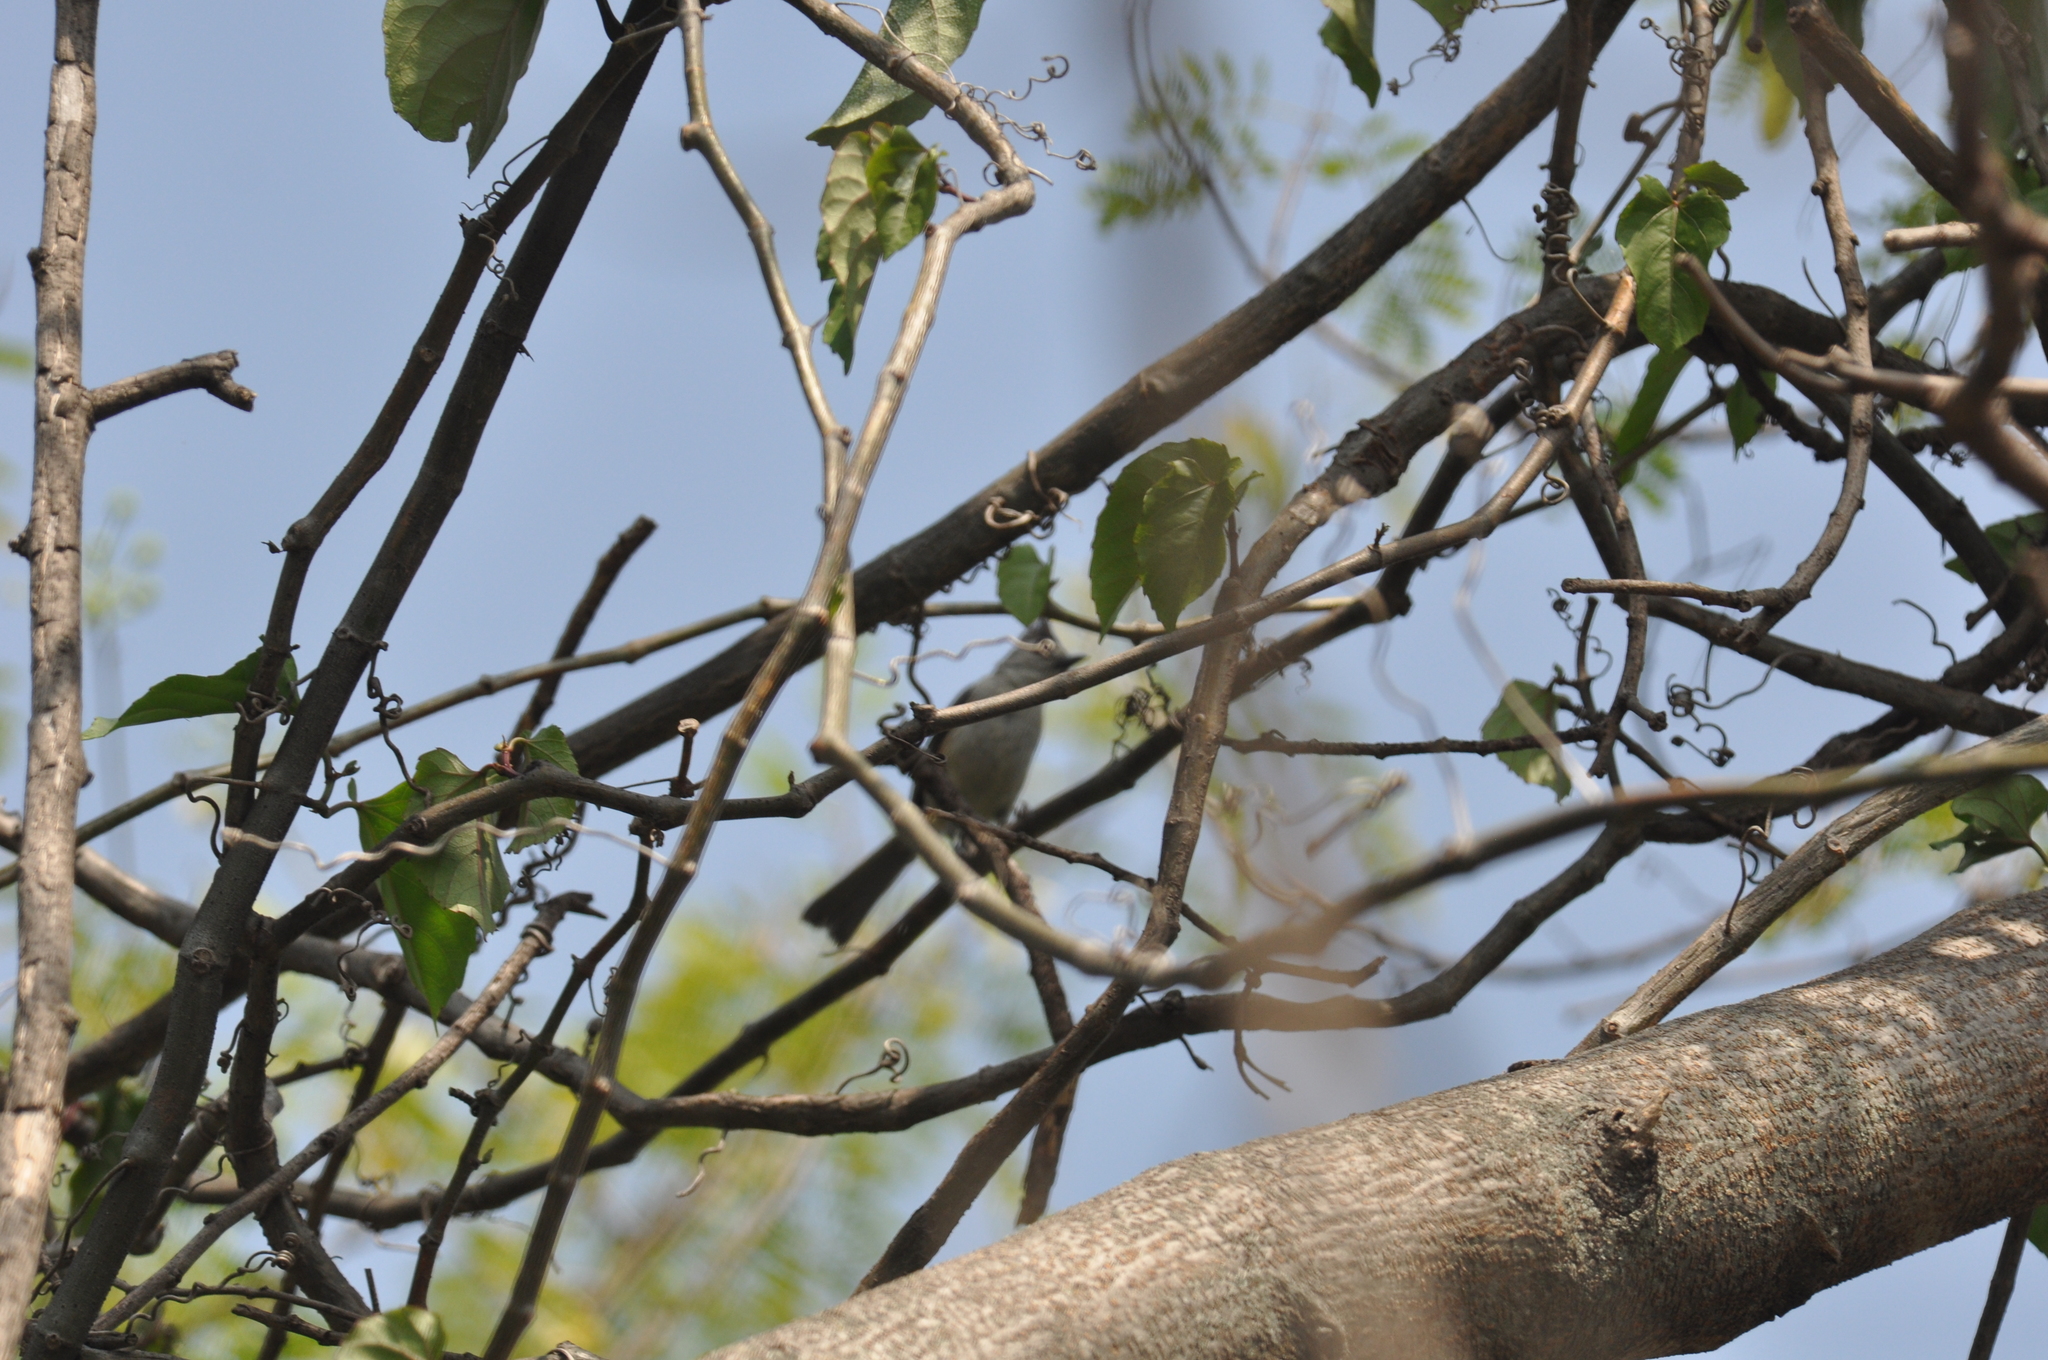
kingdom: Animalia
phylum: Chordata
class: Aves
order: Passeriformes
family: Paridae
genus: Baeolophus
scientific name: Baeolophus atricristatus
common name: Black-crested titmouse
